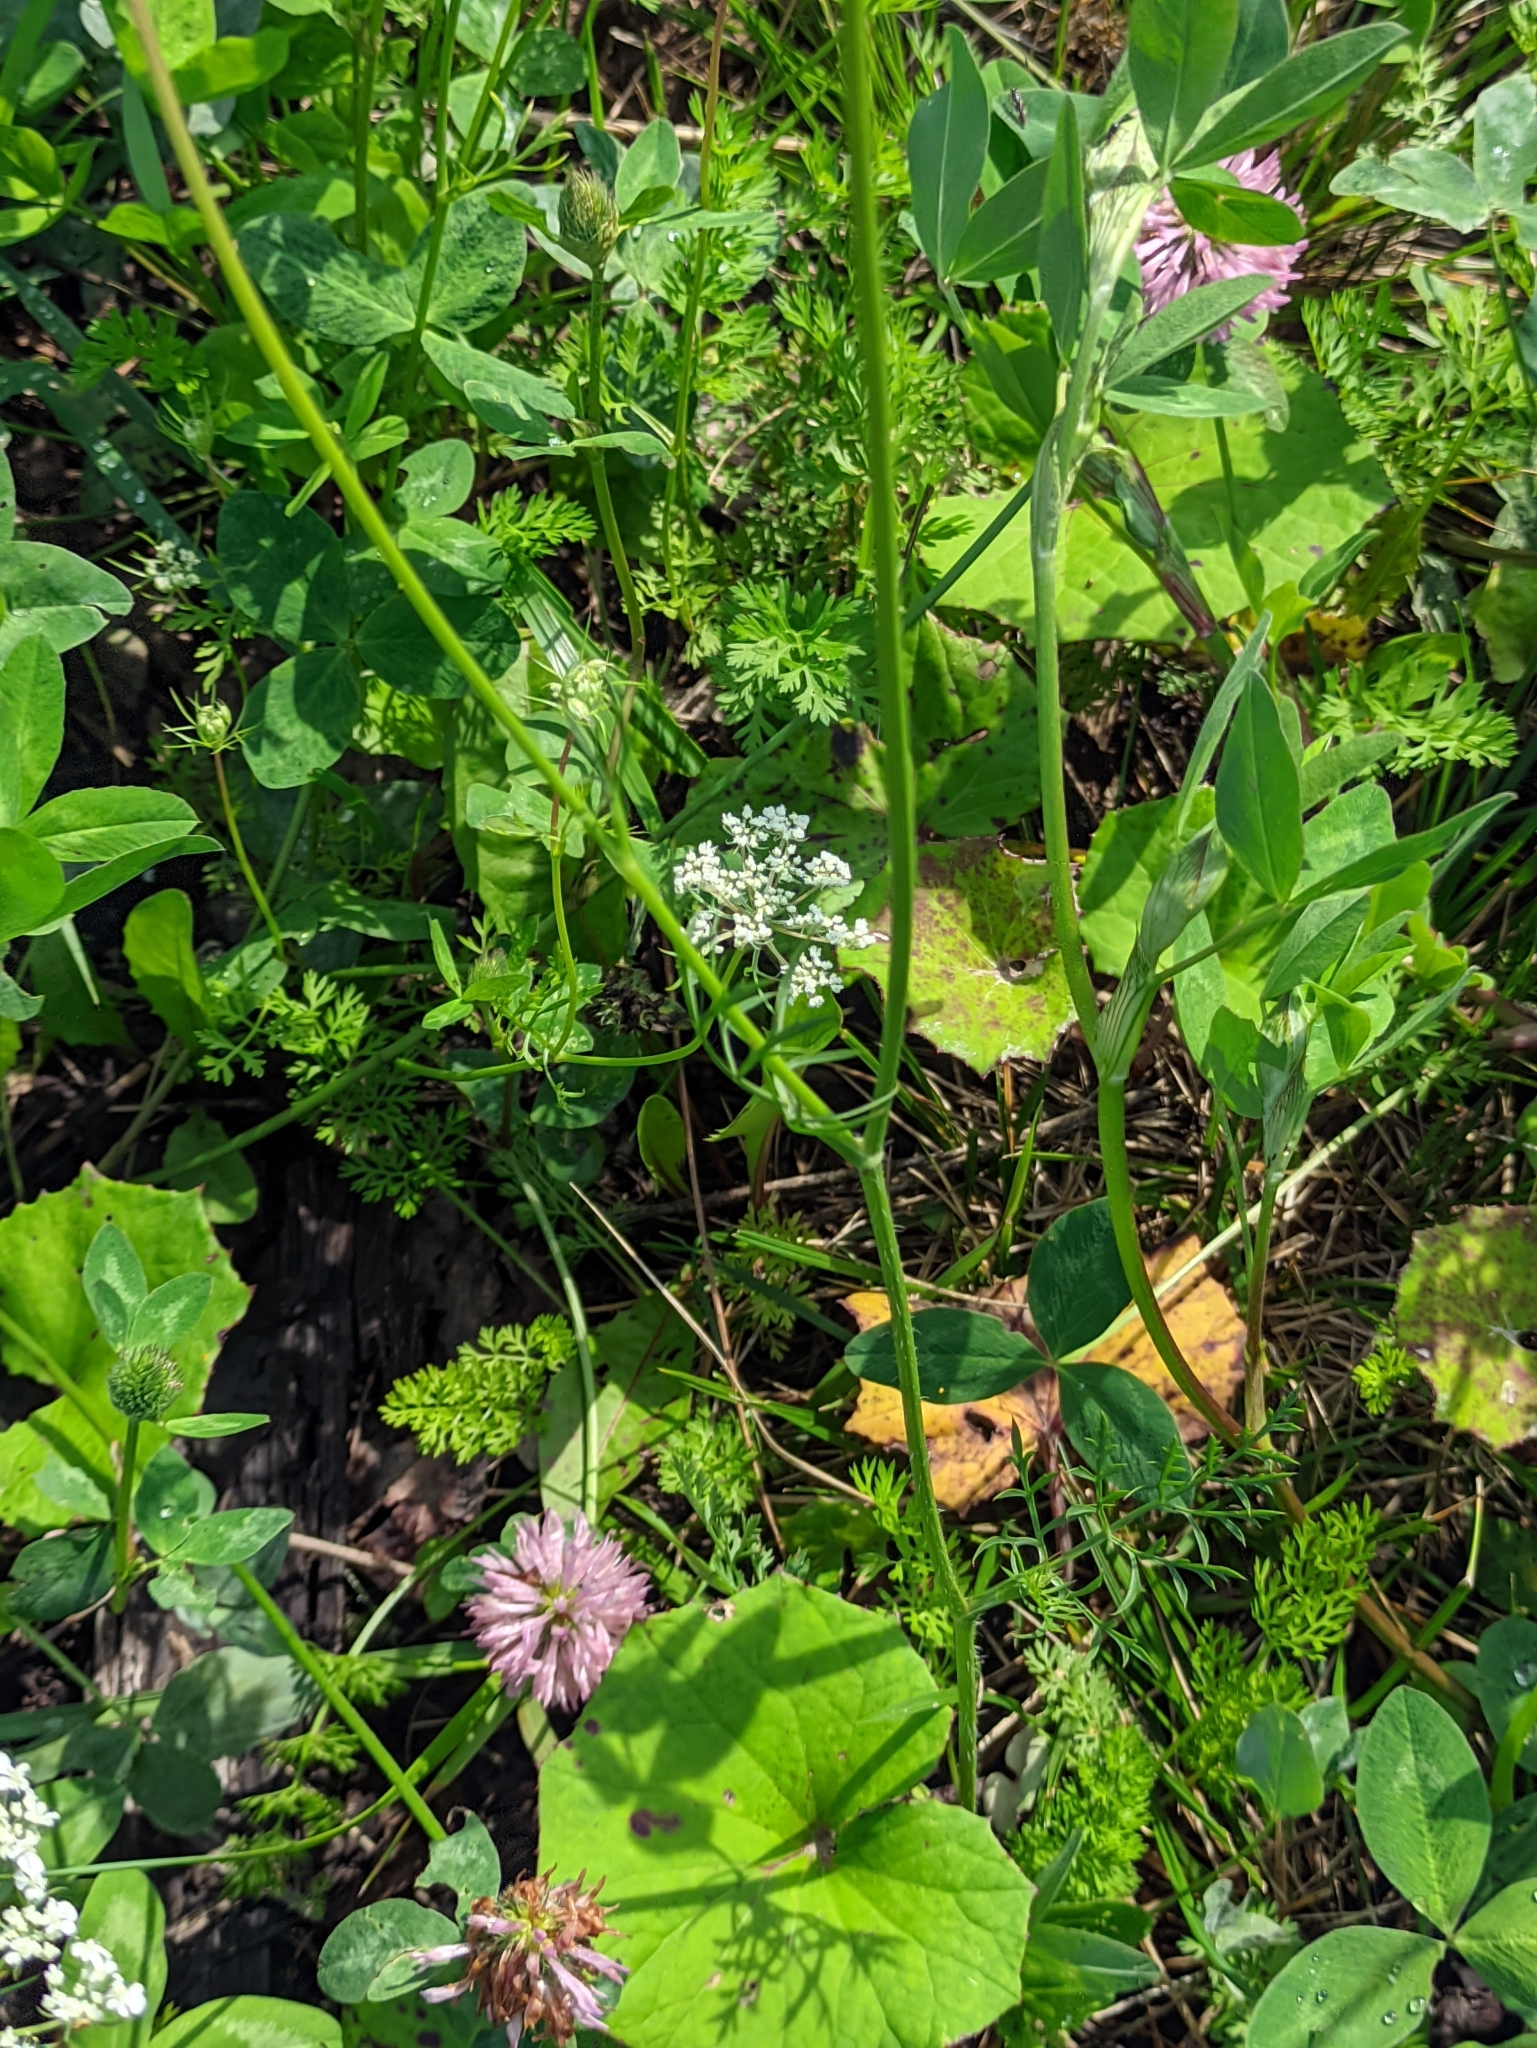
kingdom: Plantae
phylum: Tracheophyta
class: Magnoliopsida
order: Apiales
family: Apiaceae
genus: Daucus
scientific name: Daucus carota
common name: Wild carrot
